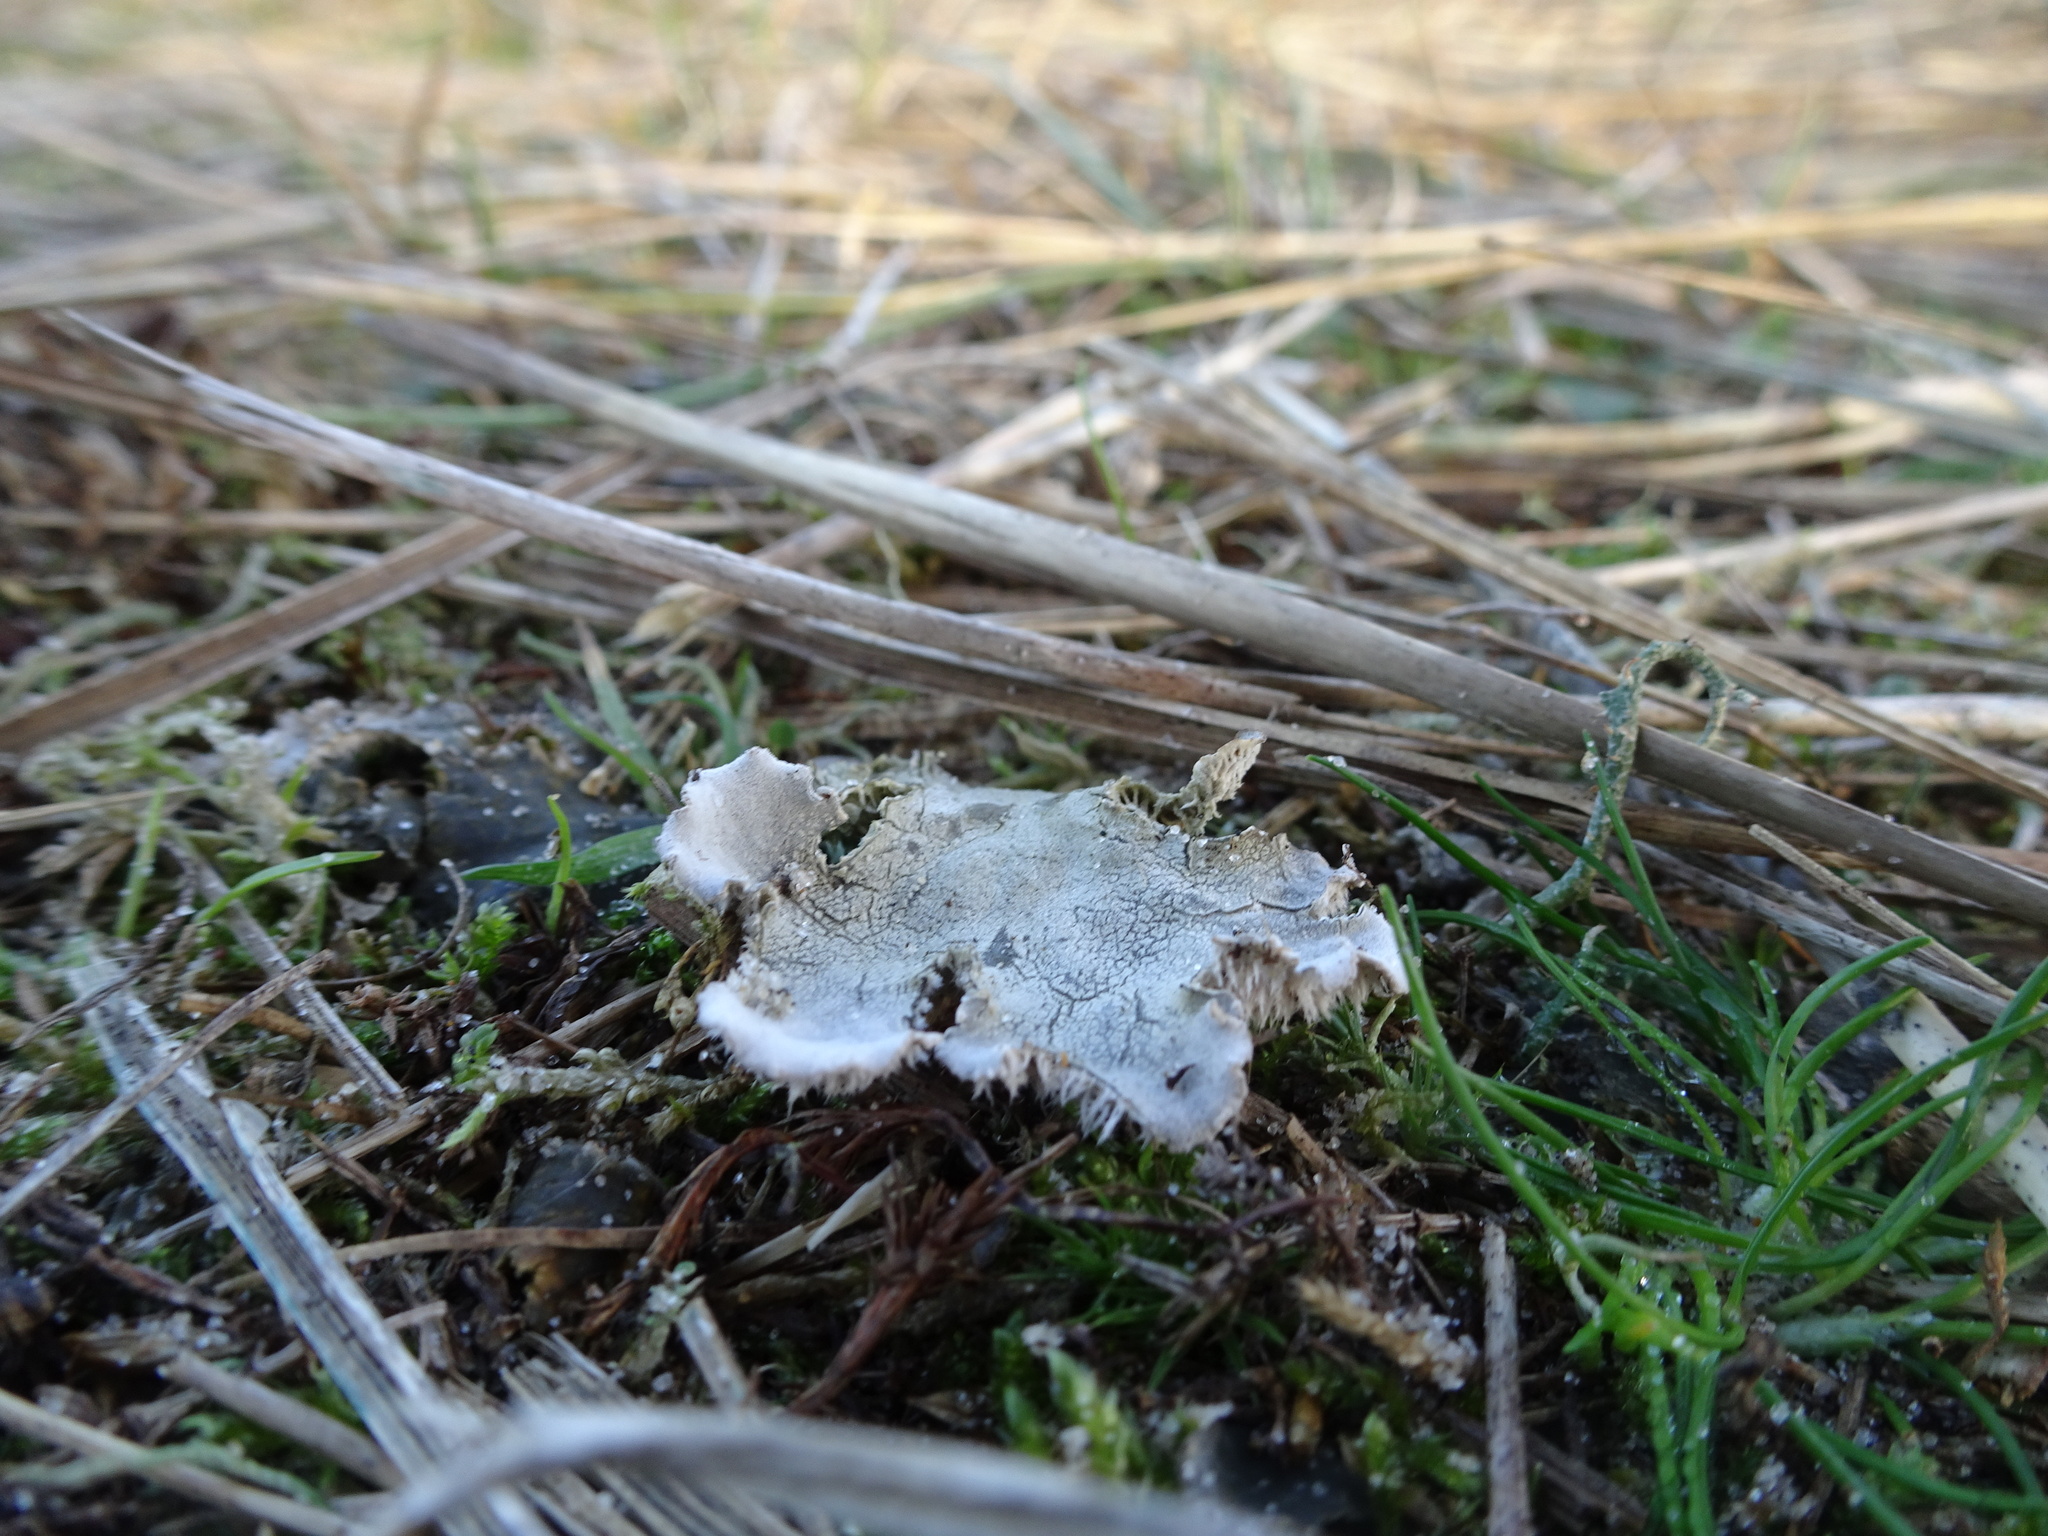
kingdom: Fungi
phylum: Ascomycota
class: Lecanoromycetes
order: Peltigerales
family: Peltigeraceae
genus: Peltigera
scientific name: Peltigera
